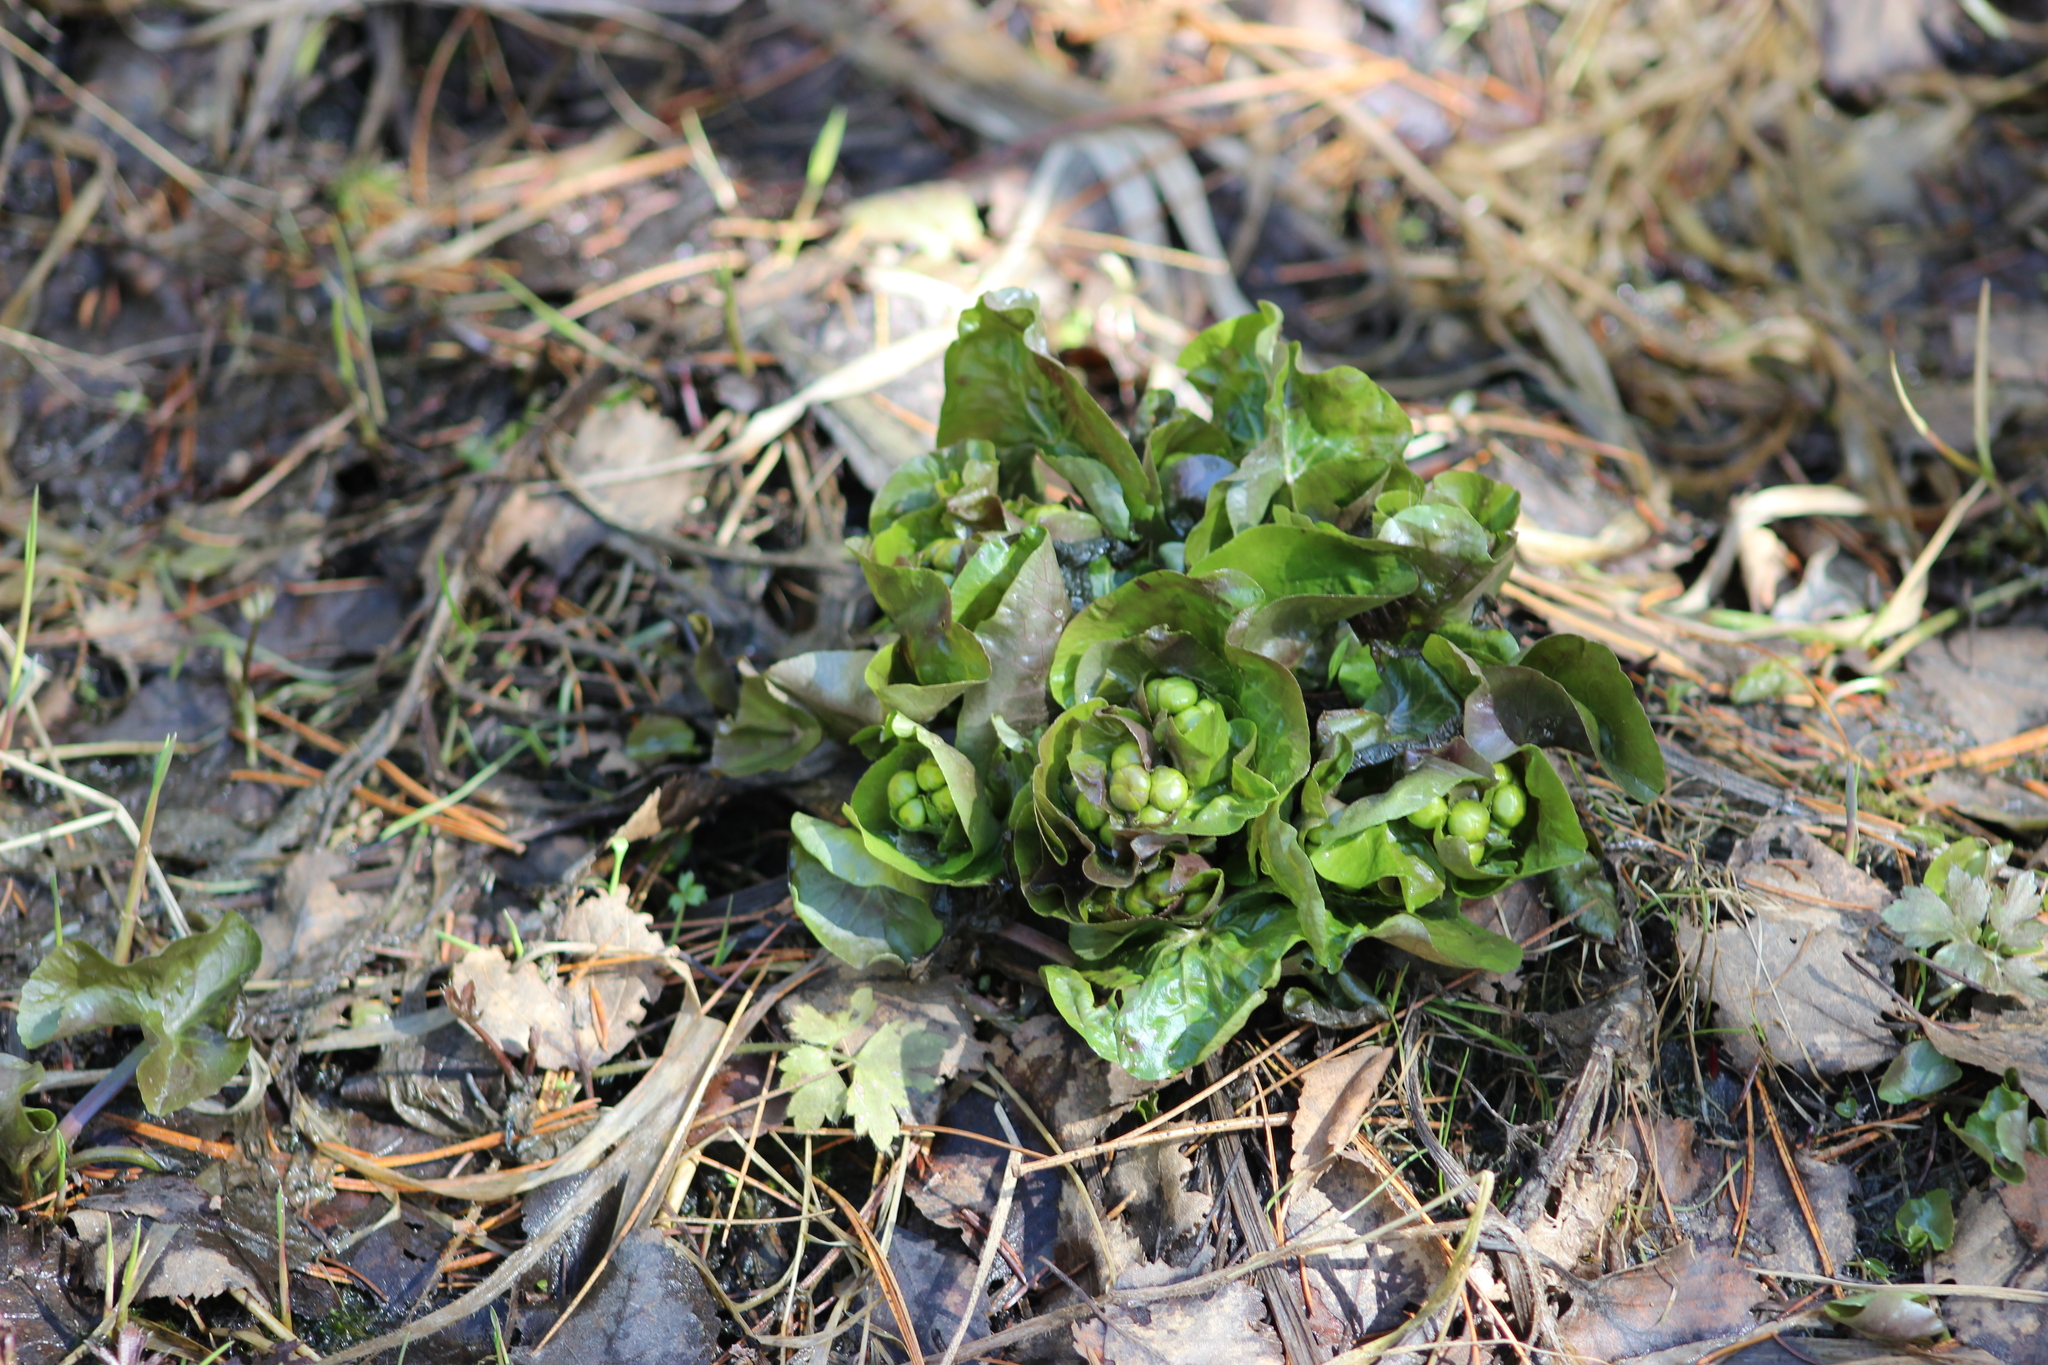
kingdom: Plantae
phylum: Tracheophyta
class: Magnoliopsida
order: Ranunculales
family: Ranunculaceae
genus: Caltha
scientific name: Caltha palustris
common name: Marsh marigold
